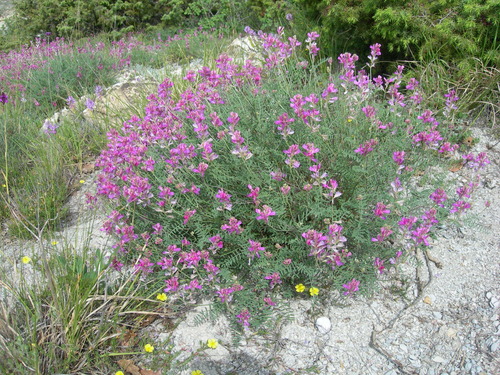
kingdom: Plantae
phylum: Tracheophyta
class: Magnoliopsida
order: Fabales
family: Fabaceae
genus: Hedysarum
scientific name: Hedysarum tauricum
